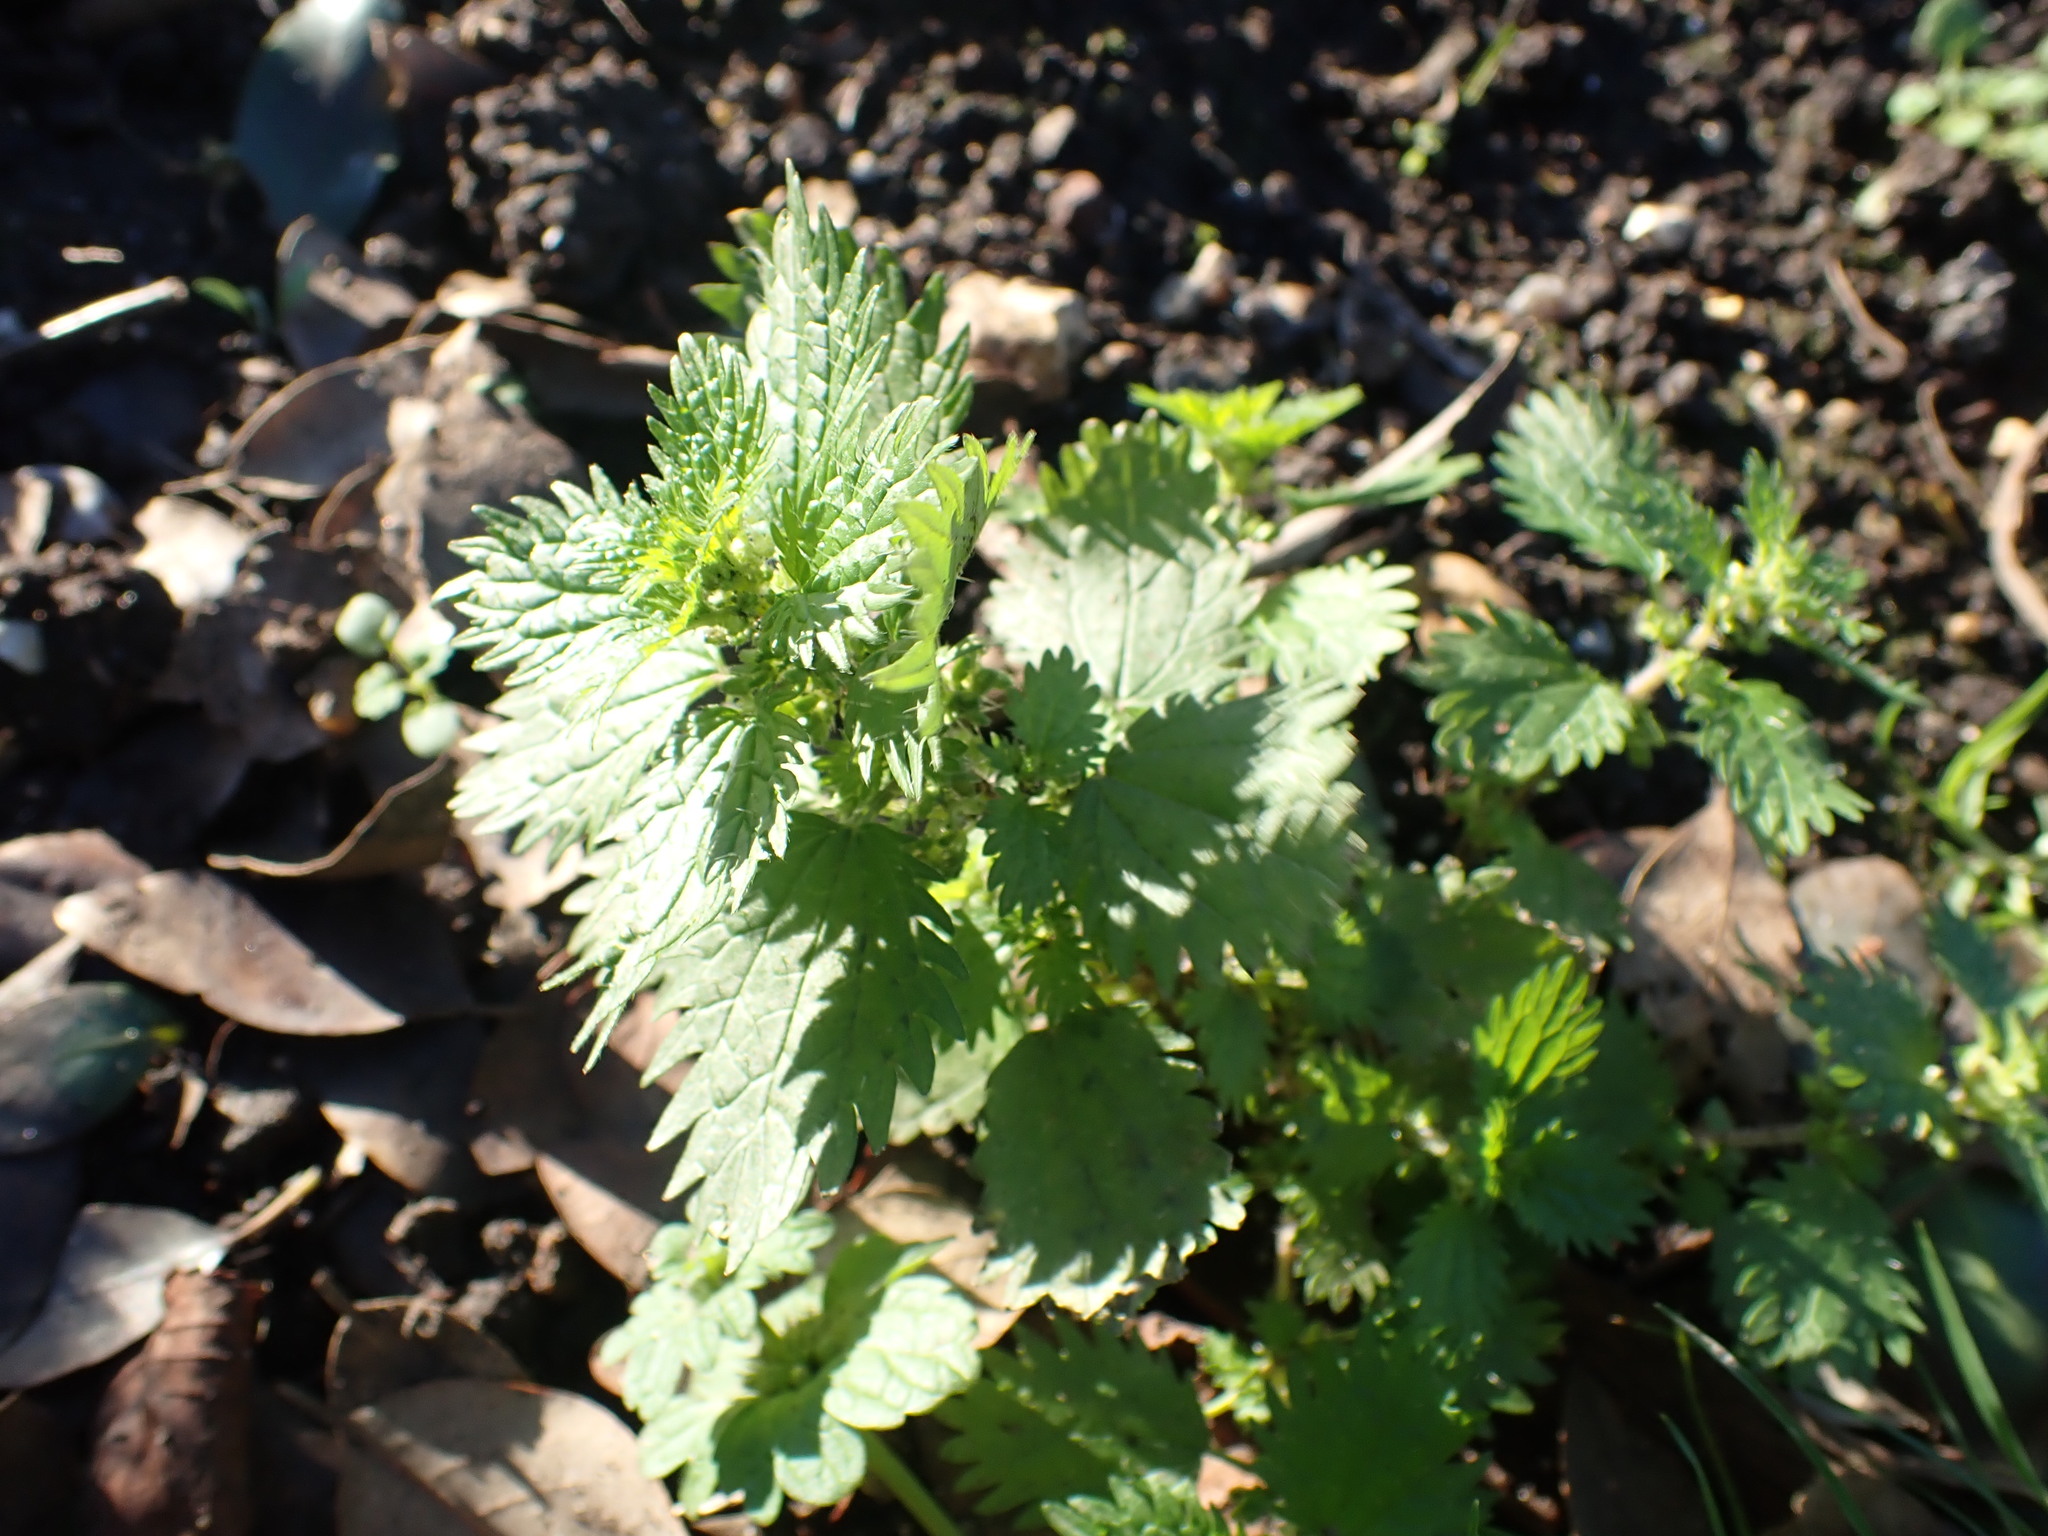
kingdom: Plantae
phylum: Tracheophyta
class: Magnoliopsida
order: Rosales
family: Urticaceae
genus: Urtica
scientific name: Urtica urens
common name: Dwarf nettle
